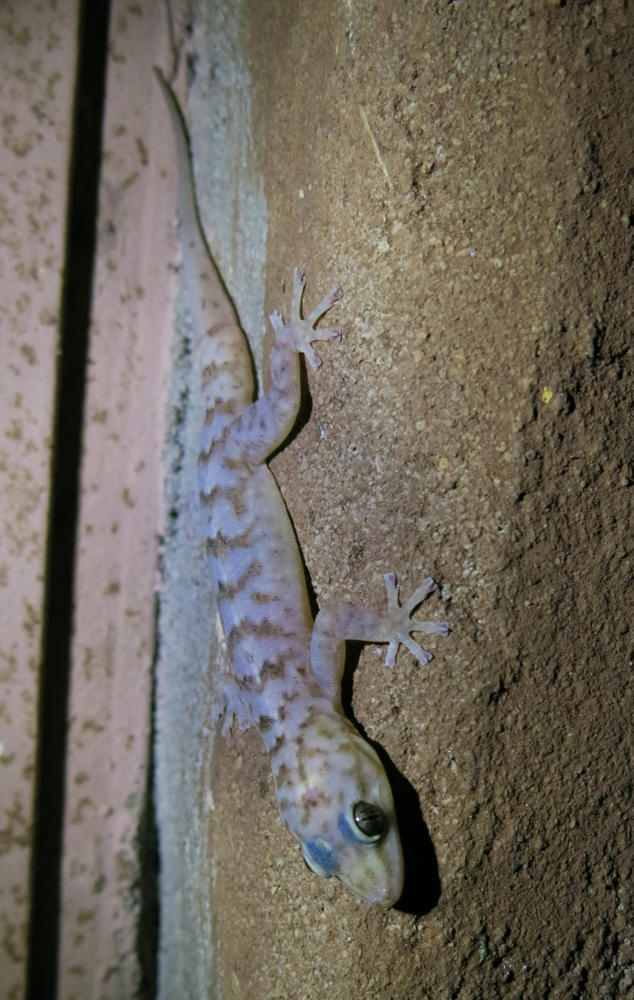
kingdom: Animalia
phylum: Chordata
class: Squamata
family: Gekkonidae
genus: Afroedura
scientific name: Afroedura pienaari
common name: Pienaar’s rock gecko
